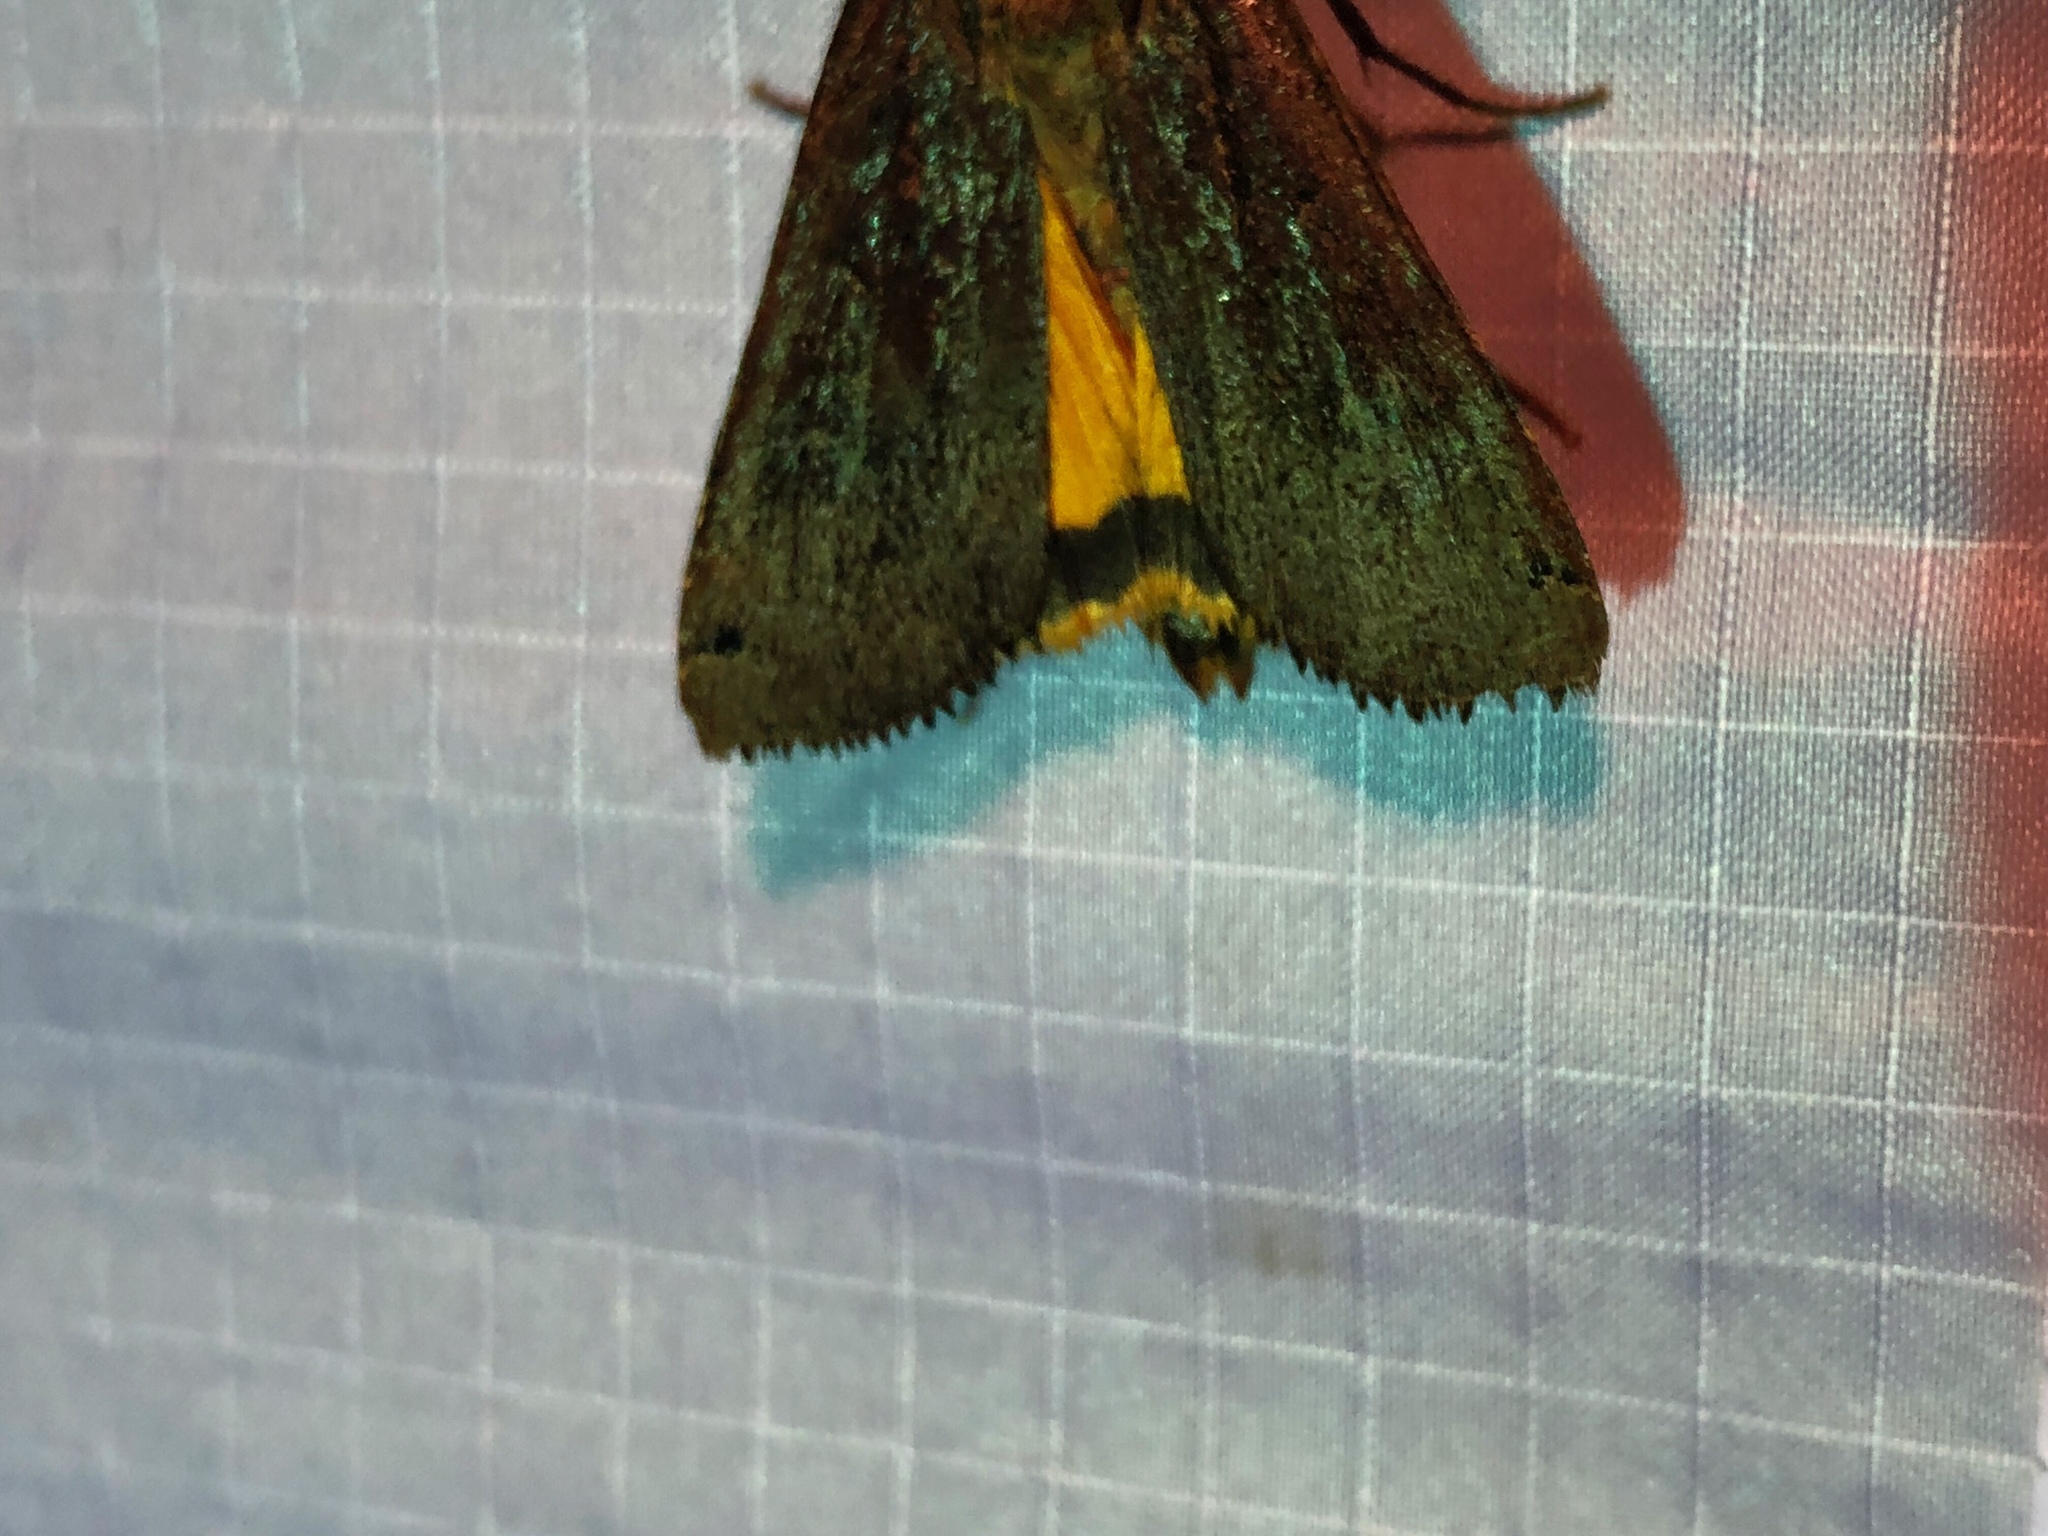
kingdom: Animalia
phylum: Arthropoda
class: Insecta
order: Lepidoptera
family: Noctuidae
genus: Noctua
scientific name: Noctua pronuba
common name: Large yellow underwing
